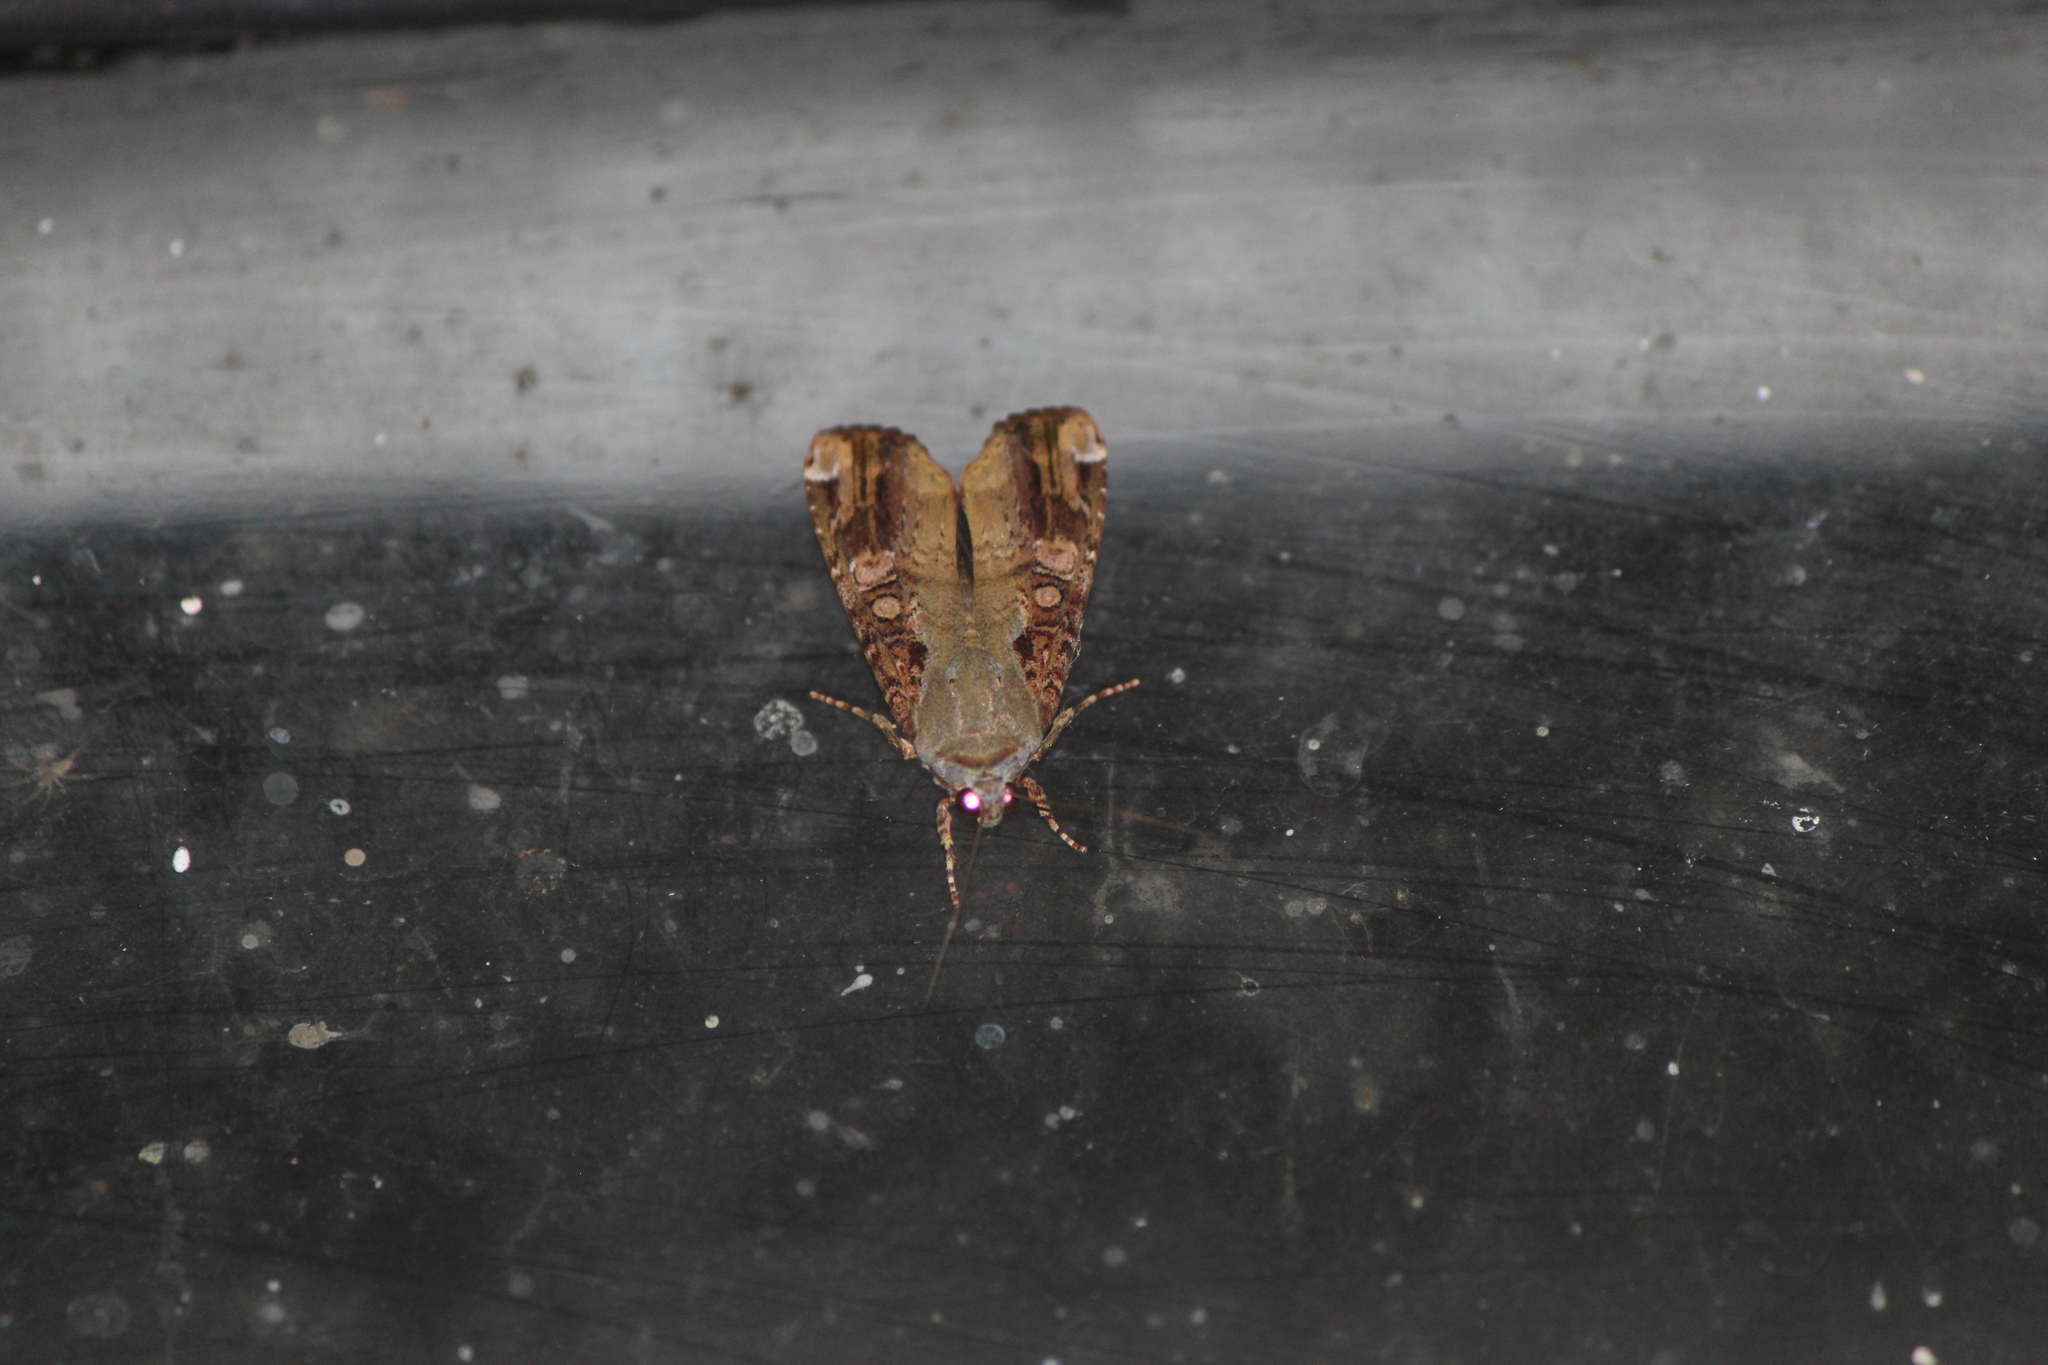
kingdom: Animalia
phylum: Arthropoda
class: Insecta
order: Lepidoptera
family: Noctuidae
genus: Magusa
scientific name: Magusa divaricata
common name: Orb narrow-winged moth
